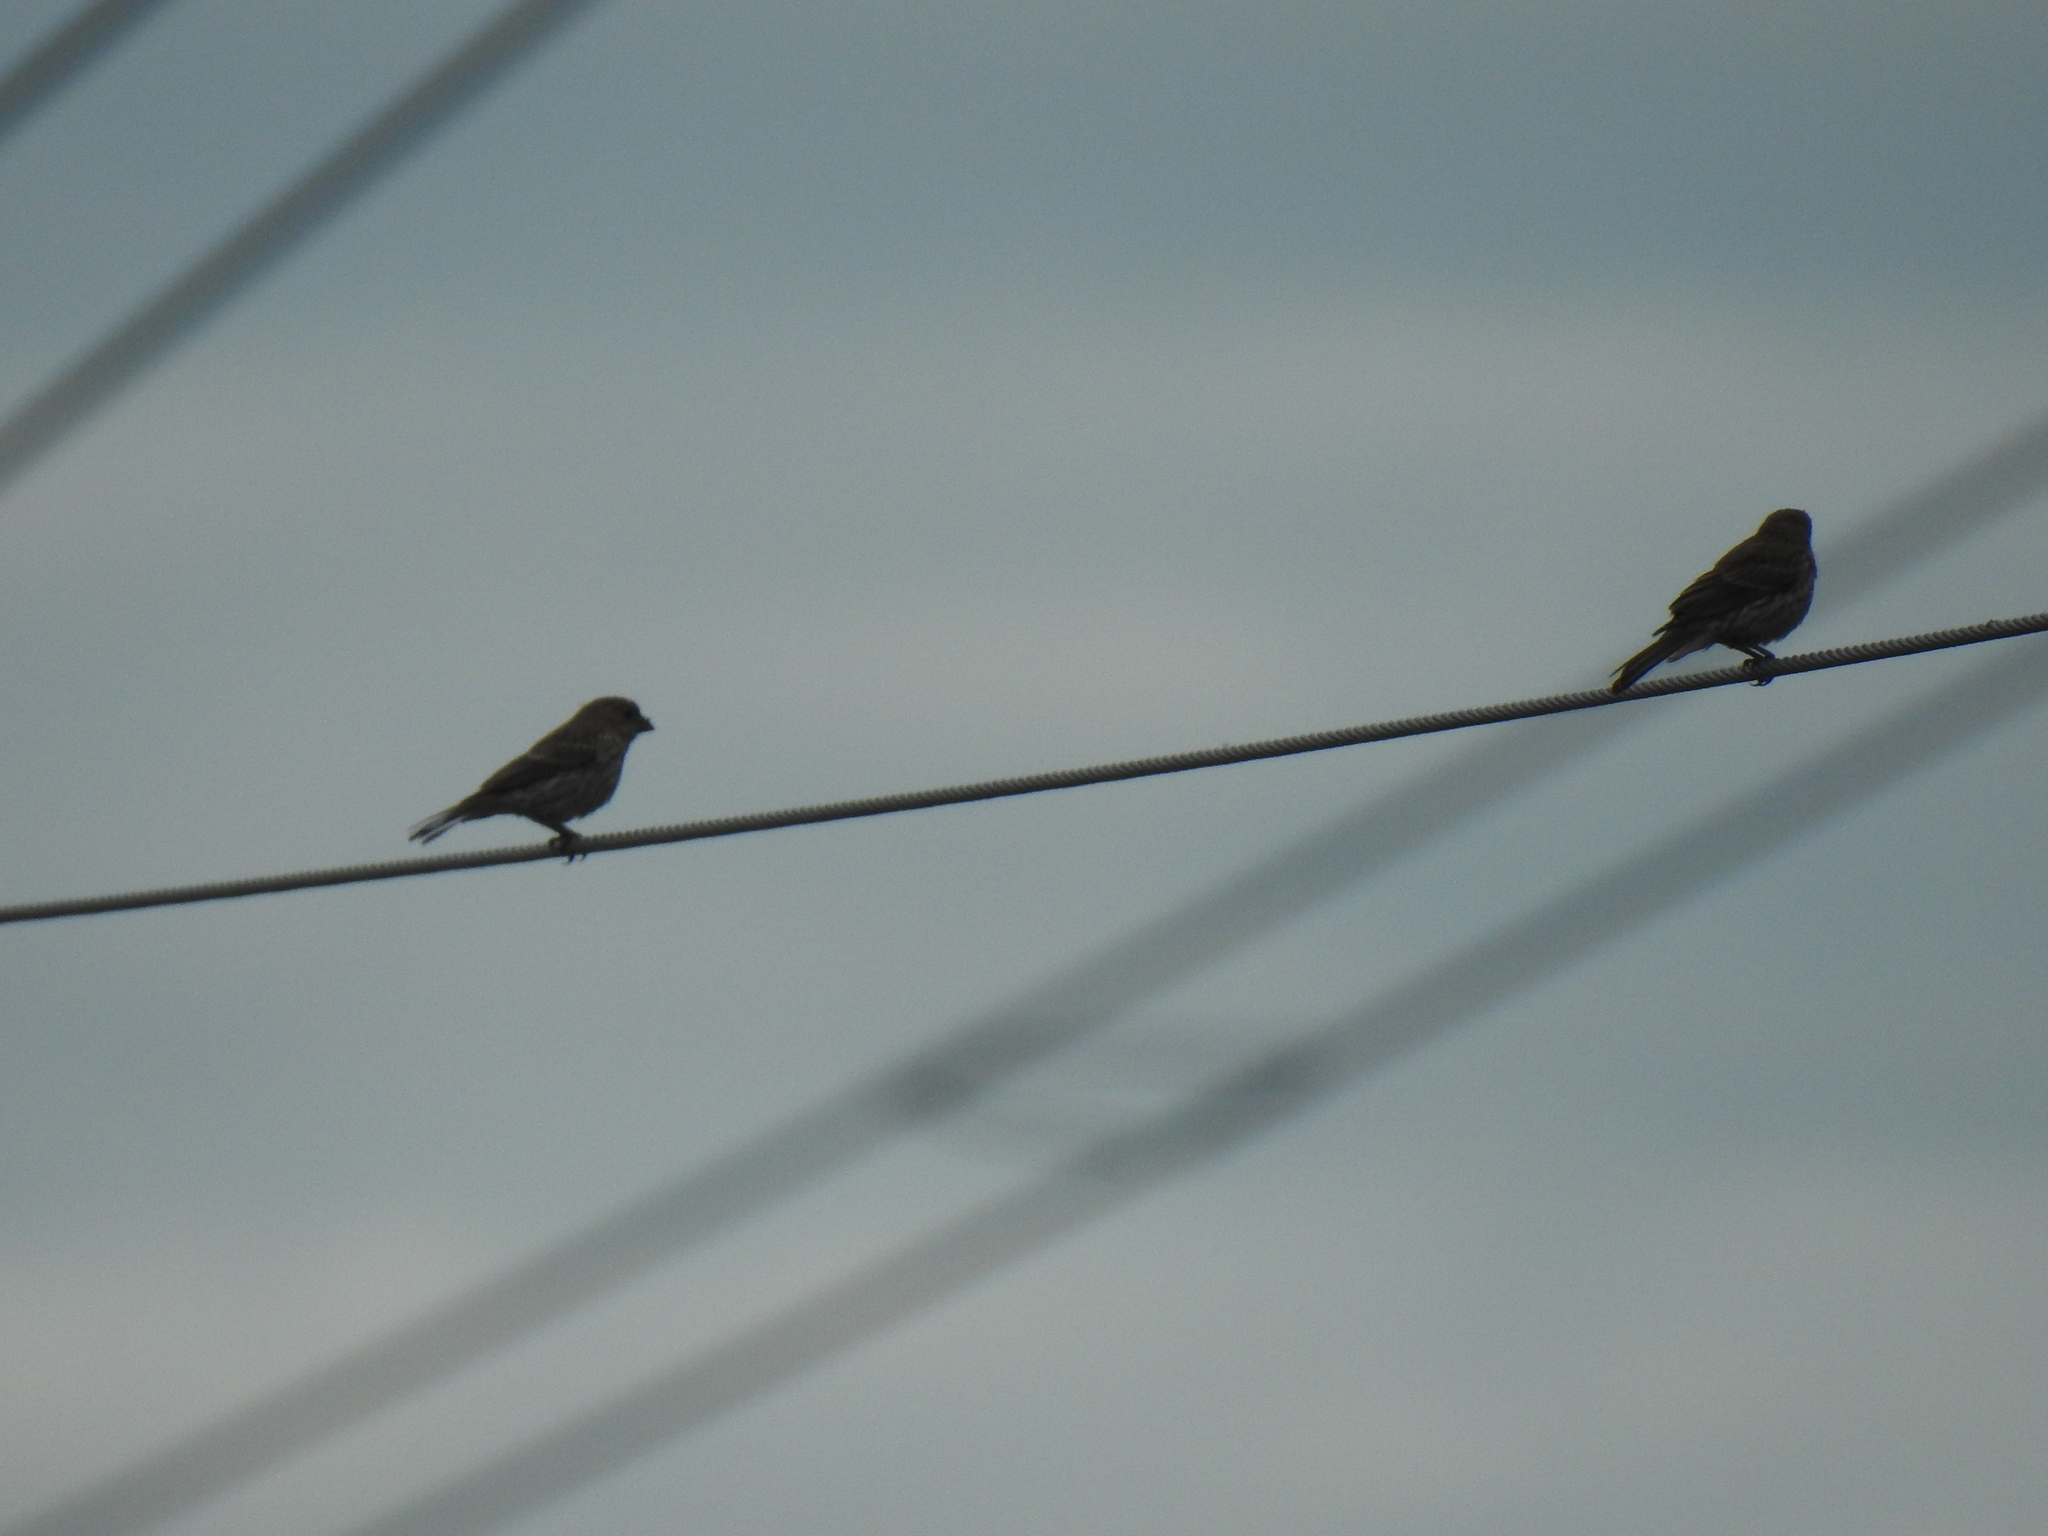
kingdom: Animalia
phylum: Chordata
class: Aves
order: Passeriformes
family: Icteridae
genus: Molothrus
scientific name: Molothrus ater
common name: Brown-headed cowbird
